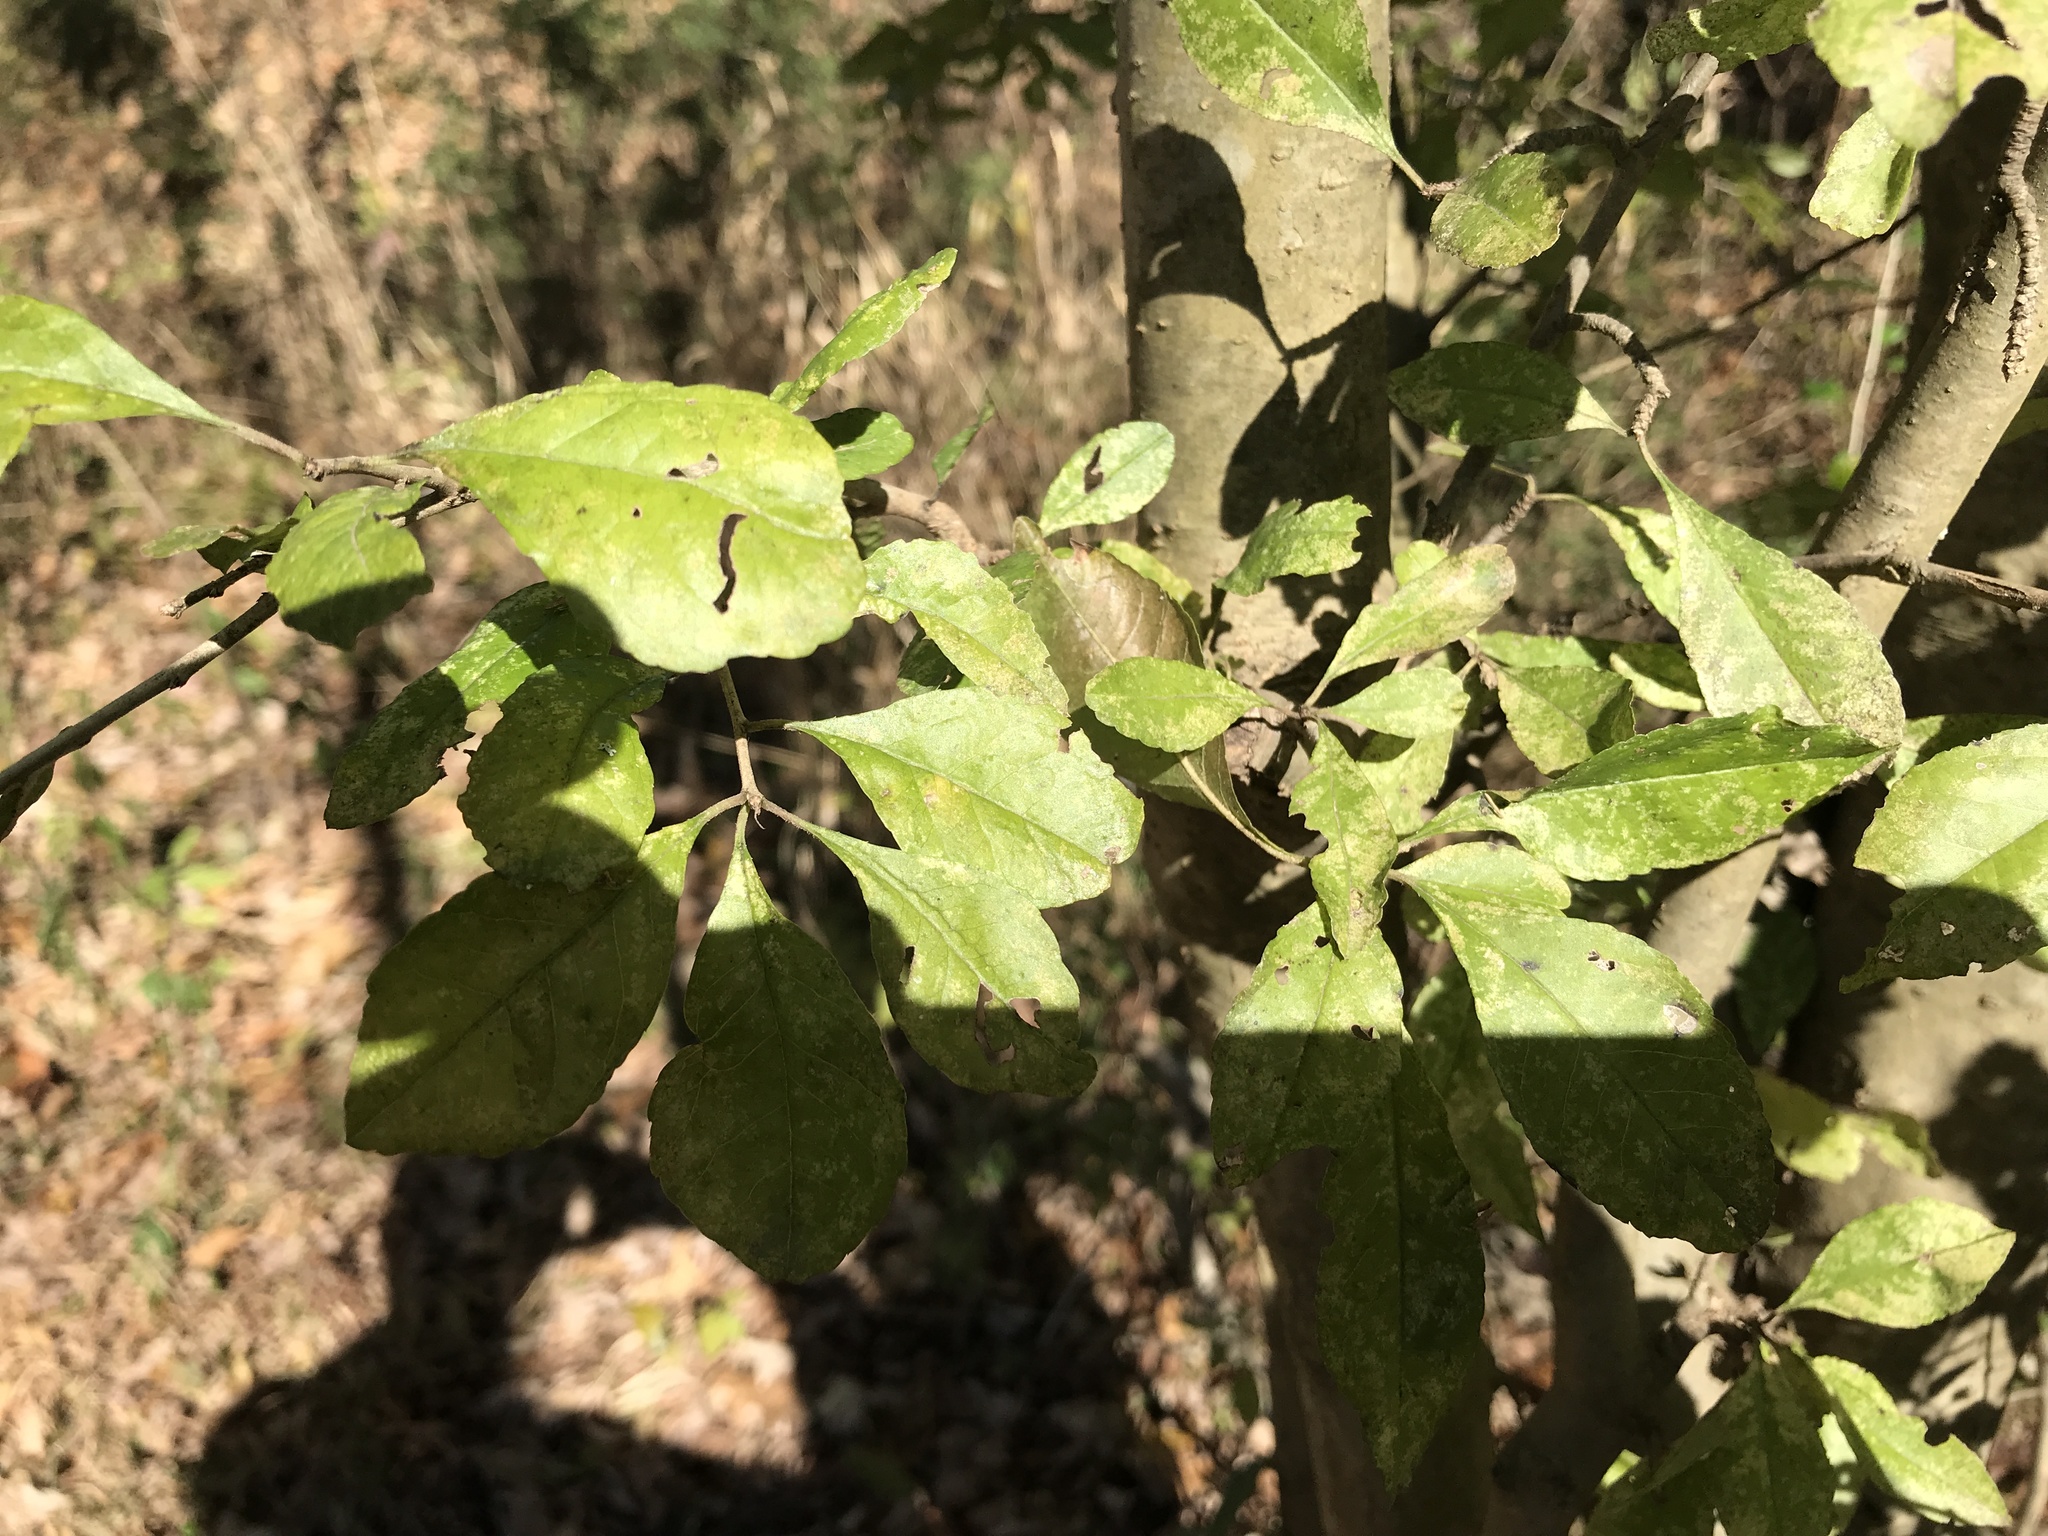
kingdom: Plantae
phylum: Tracheophyta
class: Magnoliopsida
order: Aquifoliales
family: Aquifoliaceae
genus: Ilex
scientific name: Ilex decidua
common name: Possum-haw
